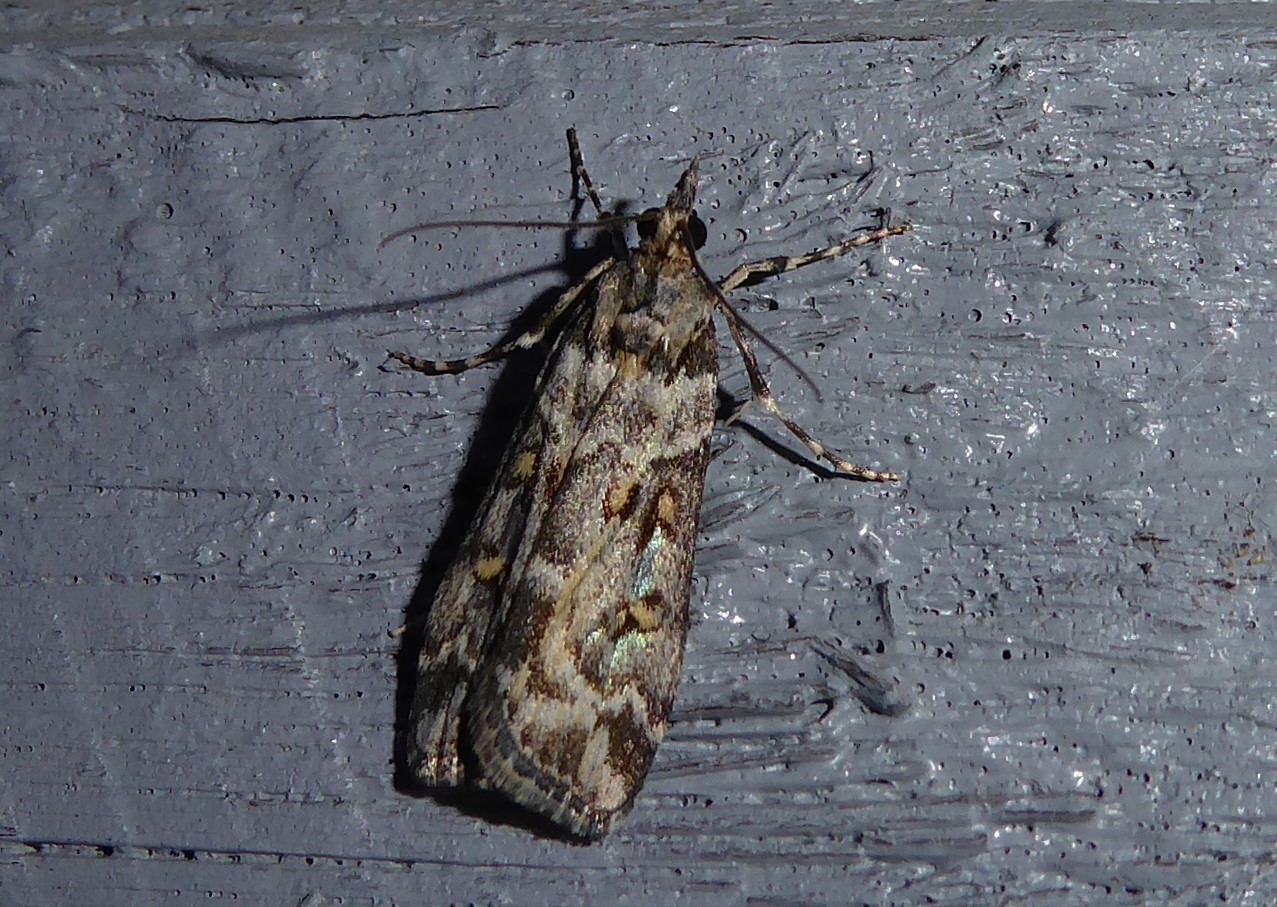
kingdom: Animalia
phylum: Arthropoda
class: Insecta
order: Lepidoptera
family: Crambidae
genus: Eudonia
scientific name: Eudonia diphtheralis
